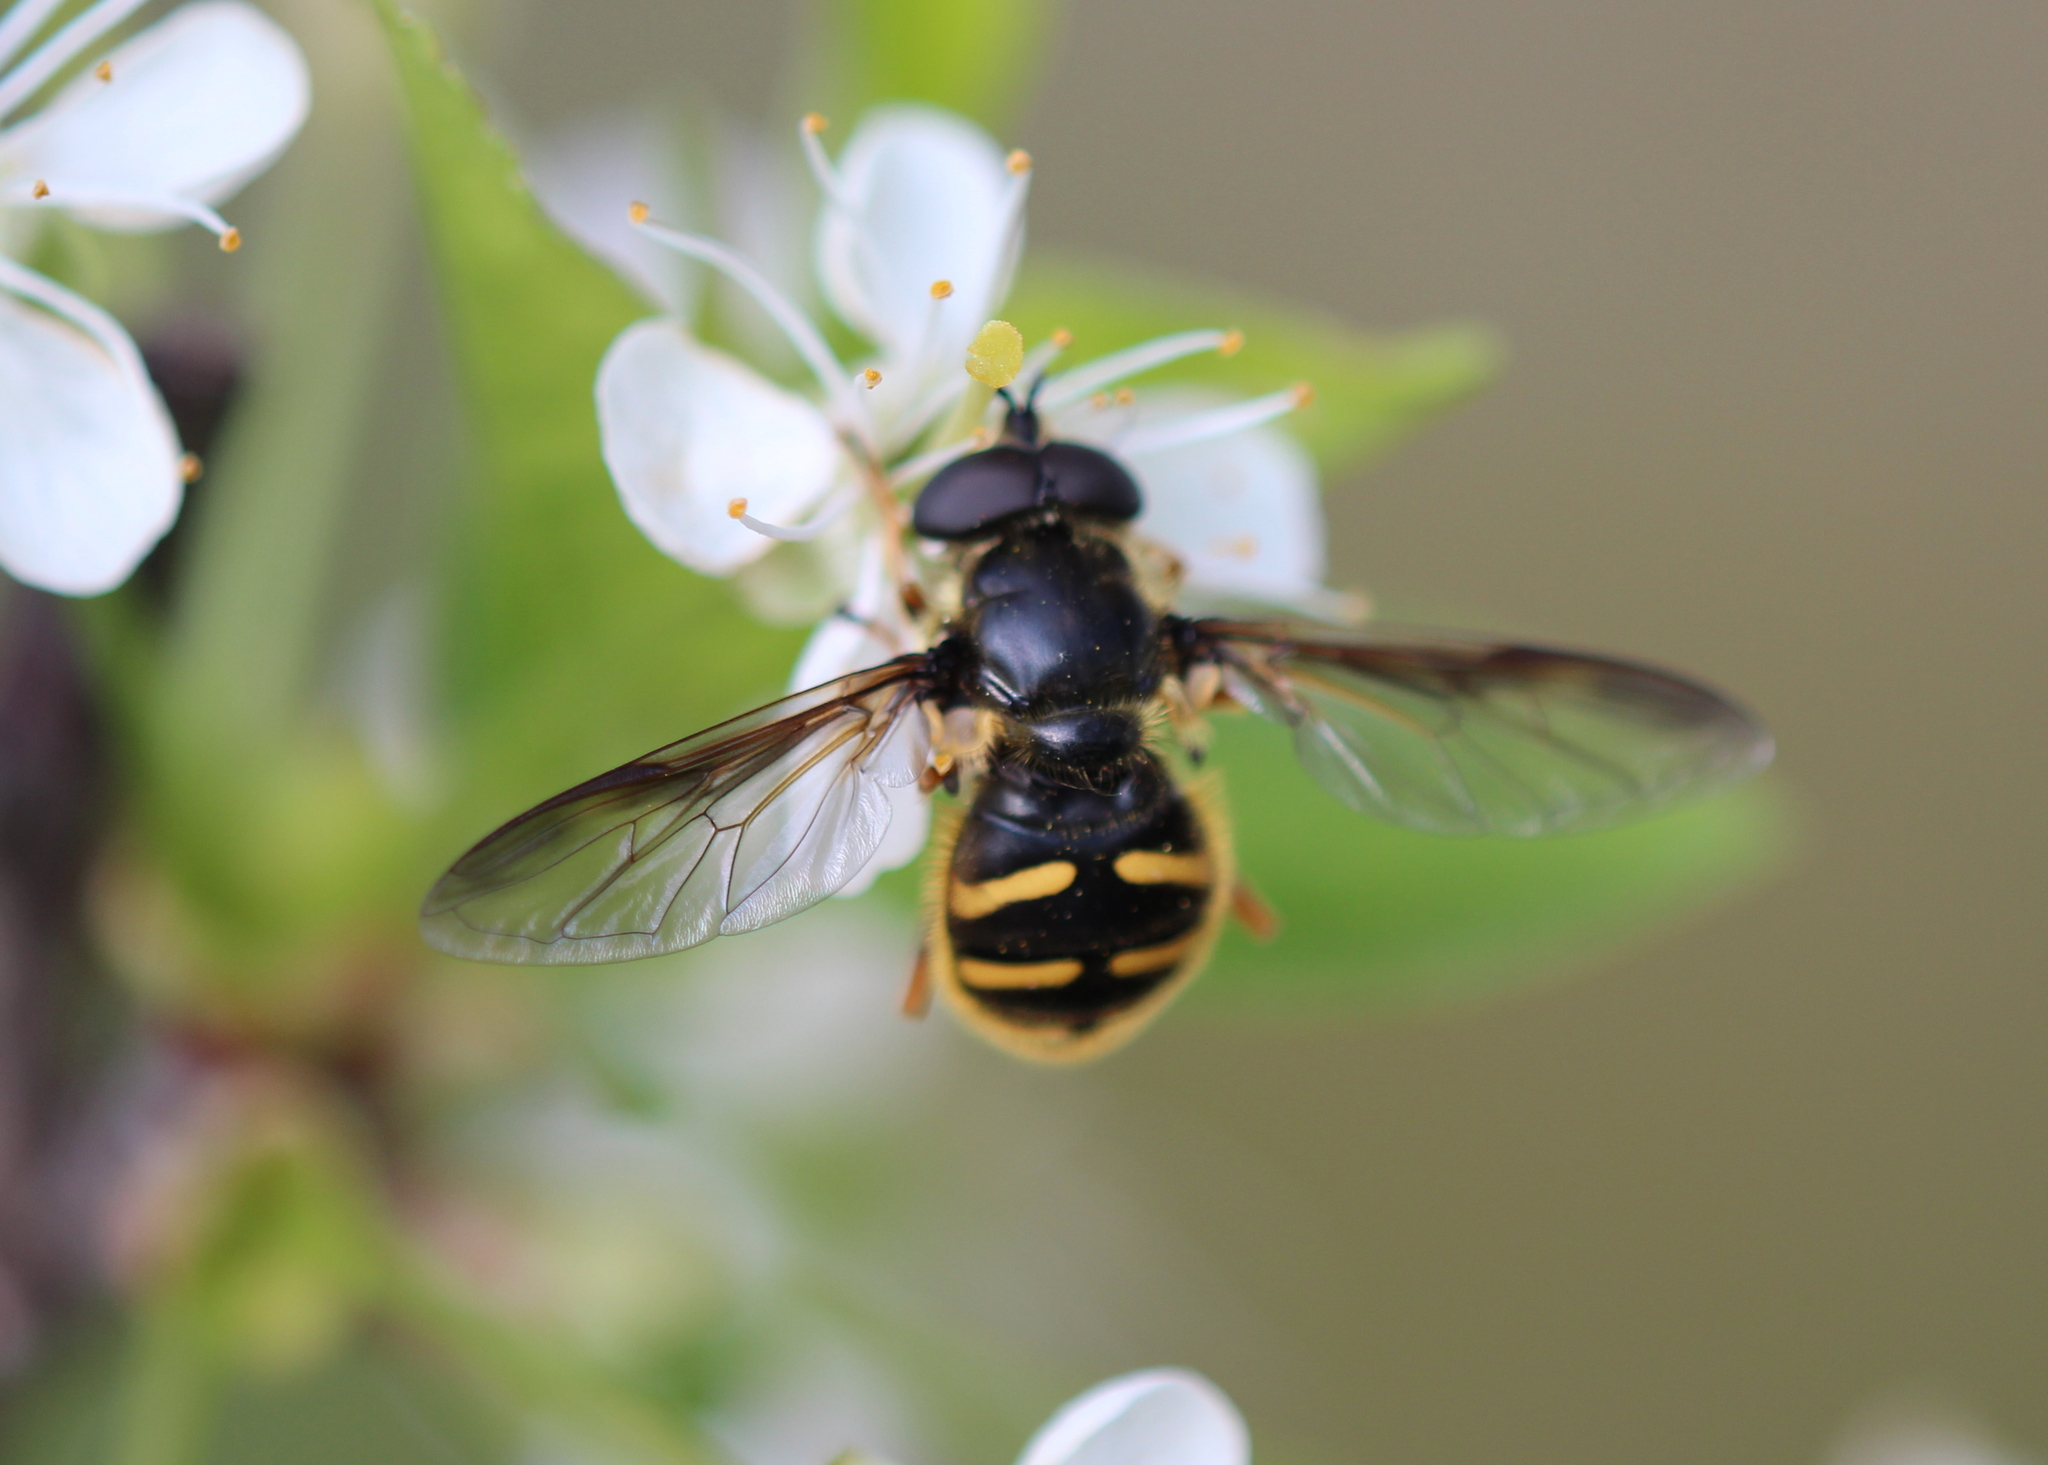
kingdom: Animalia
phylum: Arthropoda
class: Insecta
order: Diptera
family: Syrphidae
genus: Sericomyia
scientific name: Sericomyia chrysotoxoides
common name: Oblique-banded pond fly
